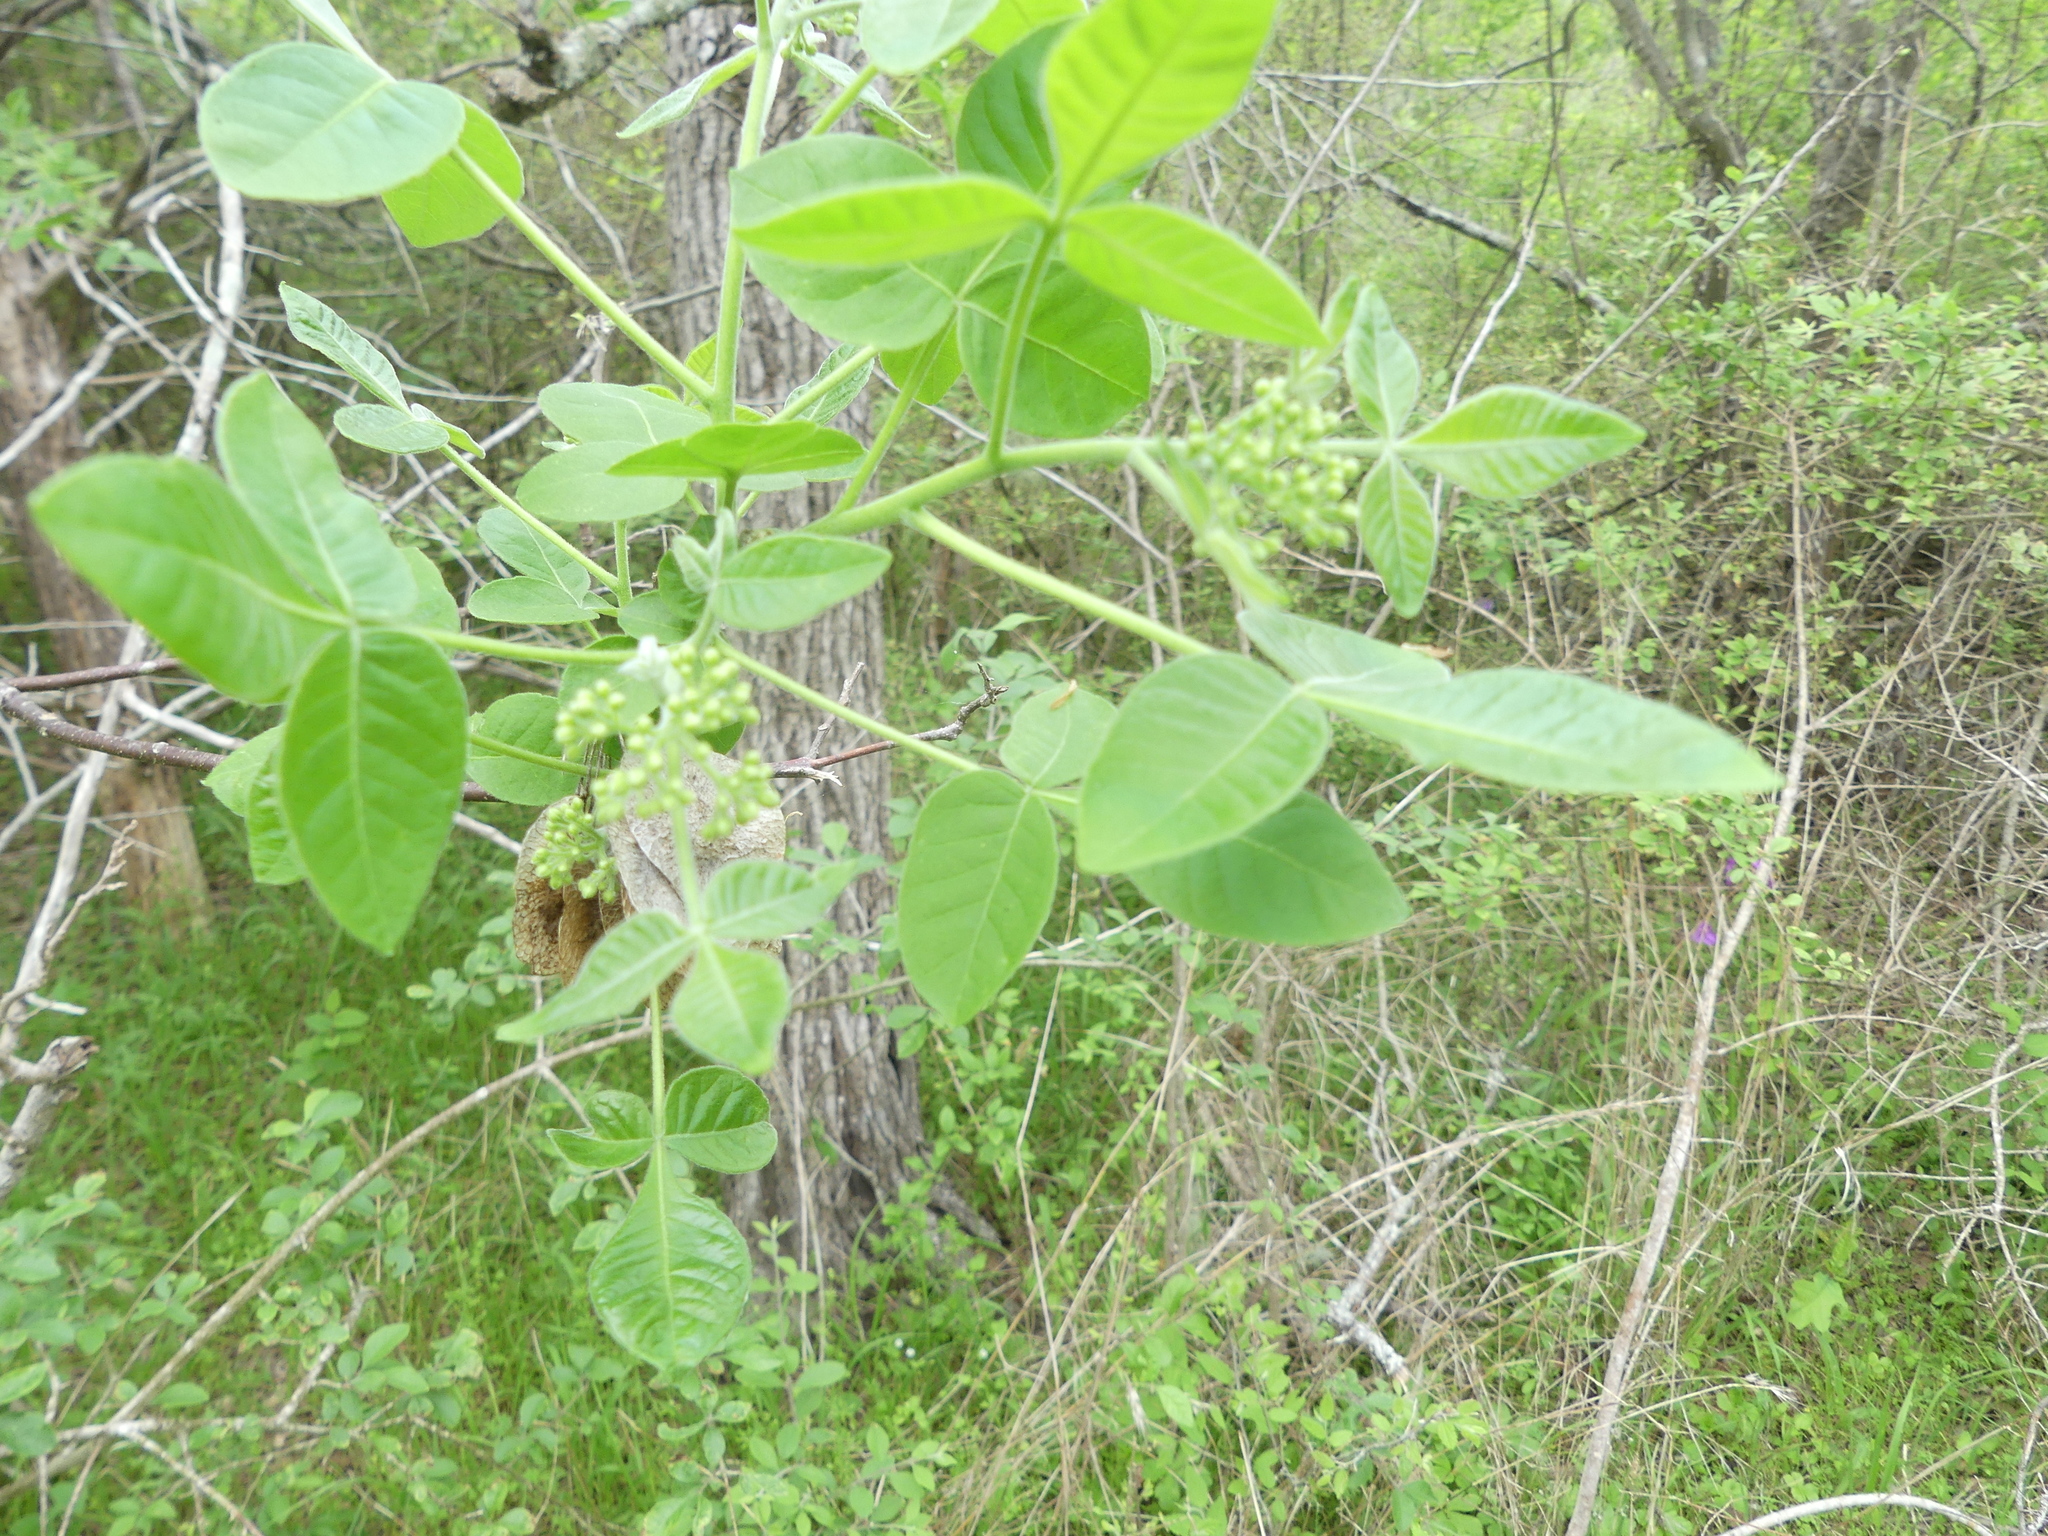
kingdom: Plantae
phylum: Tracheophyta
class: Magnoliopsida
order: Sapindales
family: Rutaceae
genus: Ptelea
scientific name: Ptelea trifoliata
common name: Common hop-tree
